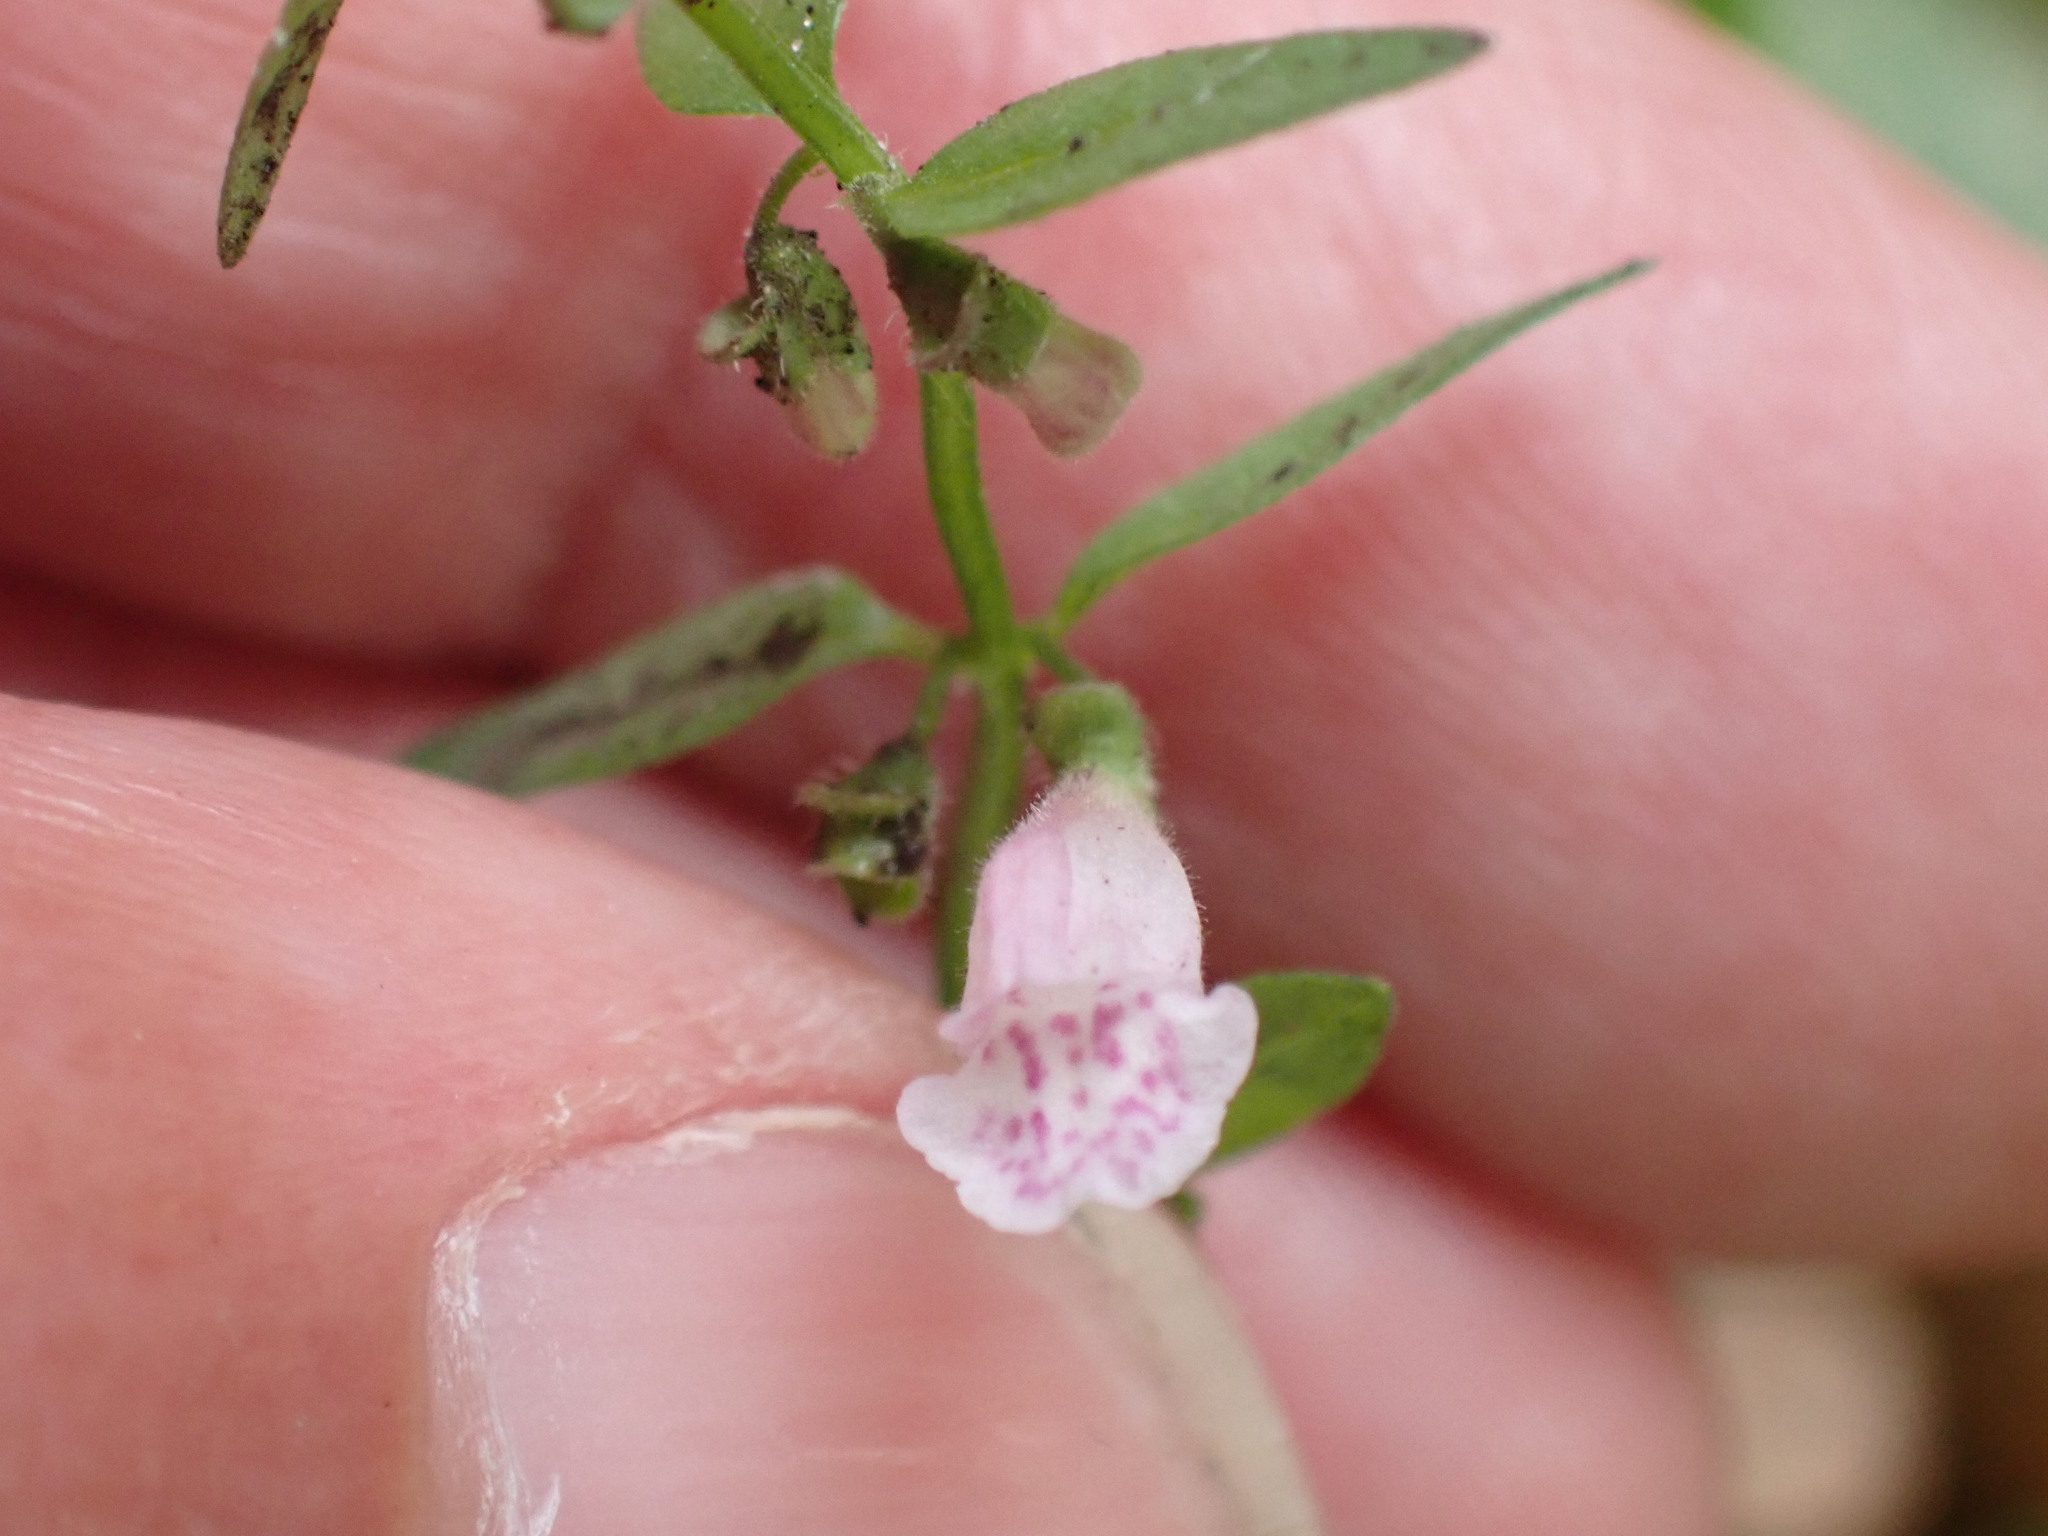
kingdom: Plantae
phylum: Tracheophyta
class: Magnoliopsida
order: Lamiales
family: Lamiaceae
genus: Scutellaria
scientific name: Scutellaria minor
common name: Lesser skullcap
